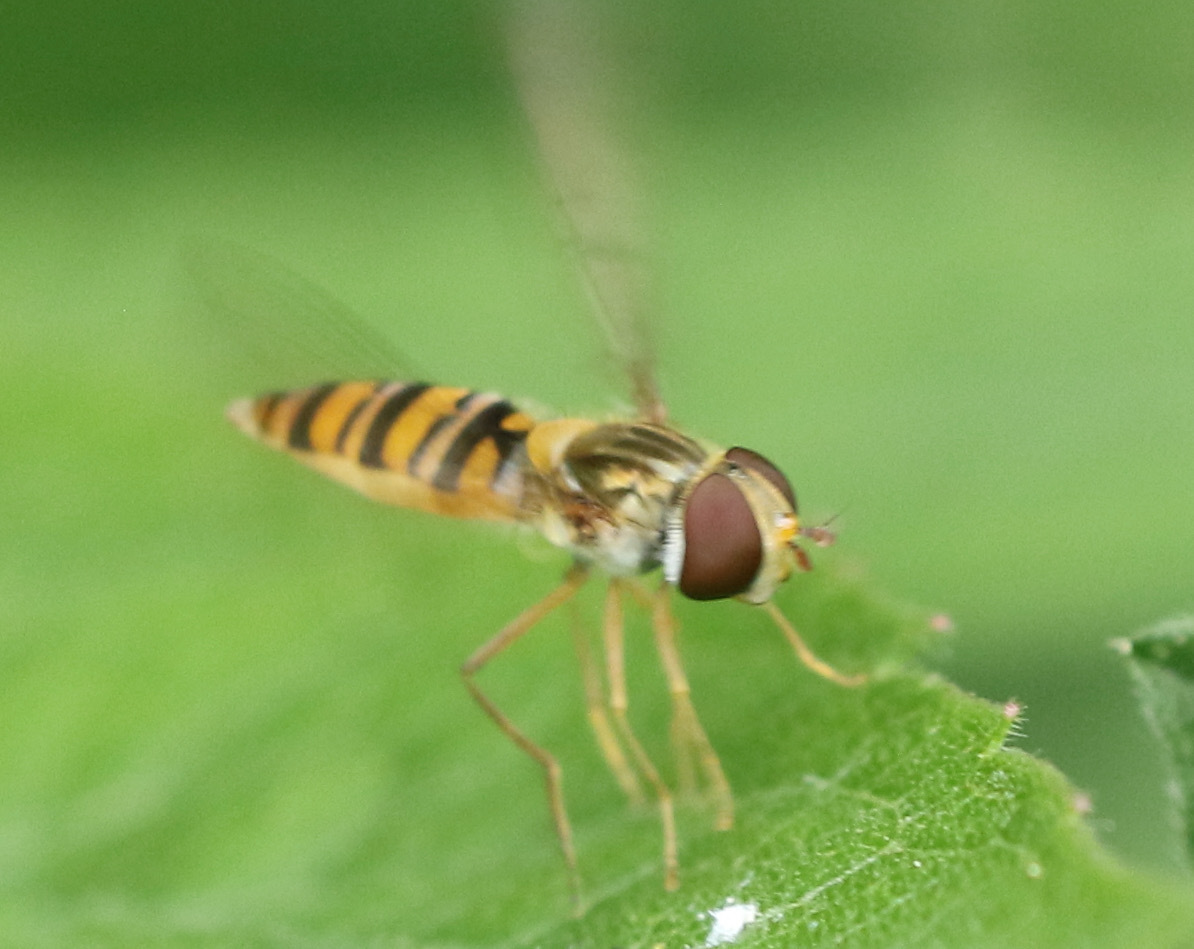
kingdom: Animalia
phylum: Arthropoda
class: Insecta
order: Diptera
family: Syrphidae
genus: Episyrphus
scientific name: Episyrphus balteatus
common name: Marmalade hoverfly
